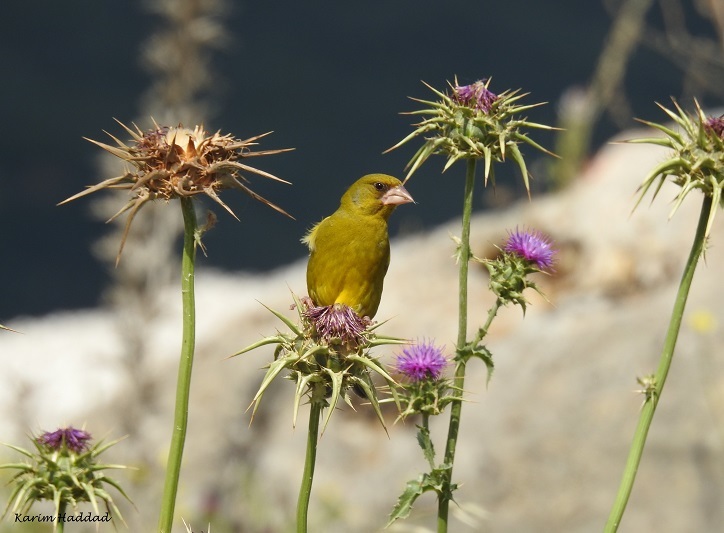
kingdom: Plantae
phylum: Tracheophyta
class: Liliopsida
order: Poales
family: Poaceae
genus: Chloris
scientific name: Chloris chloris
